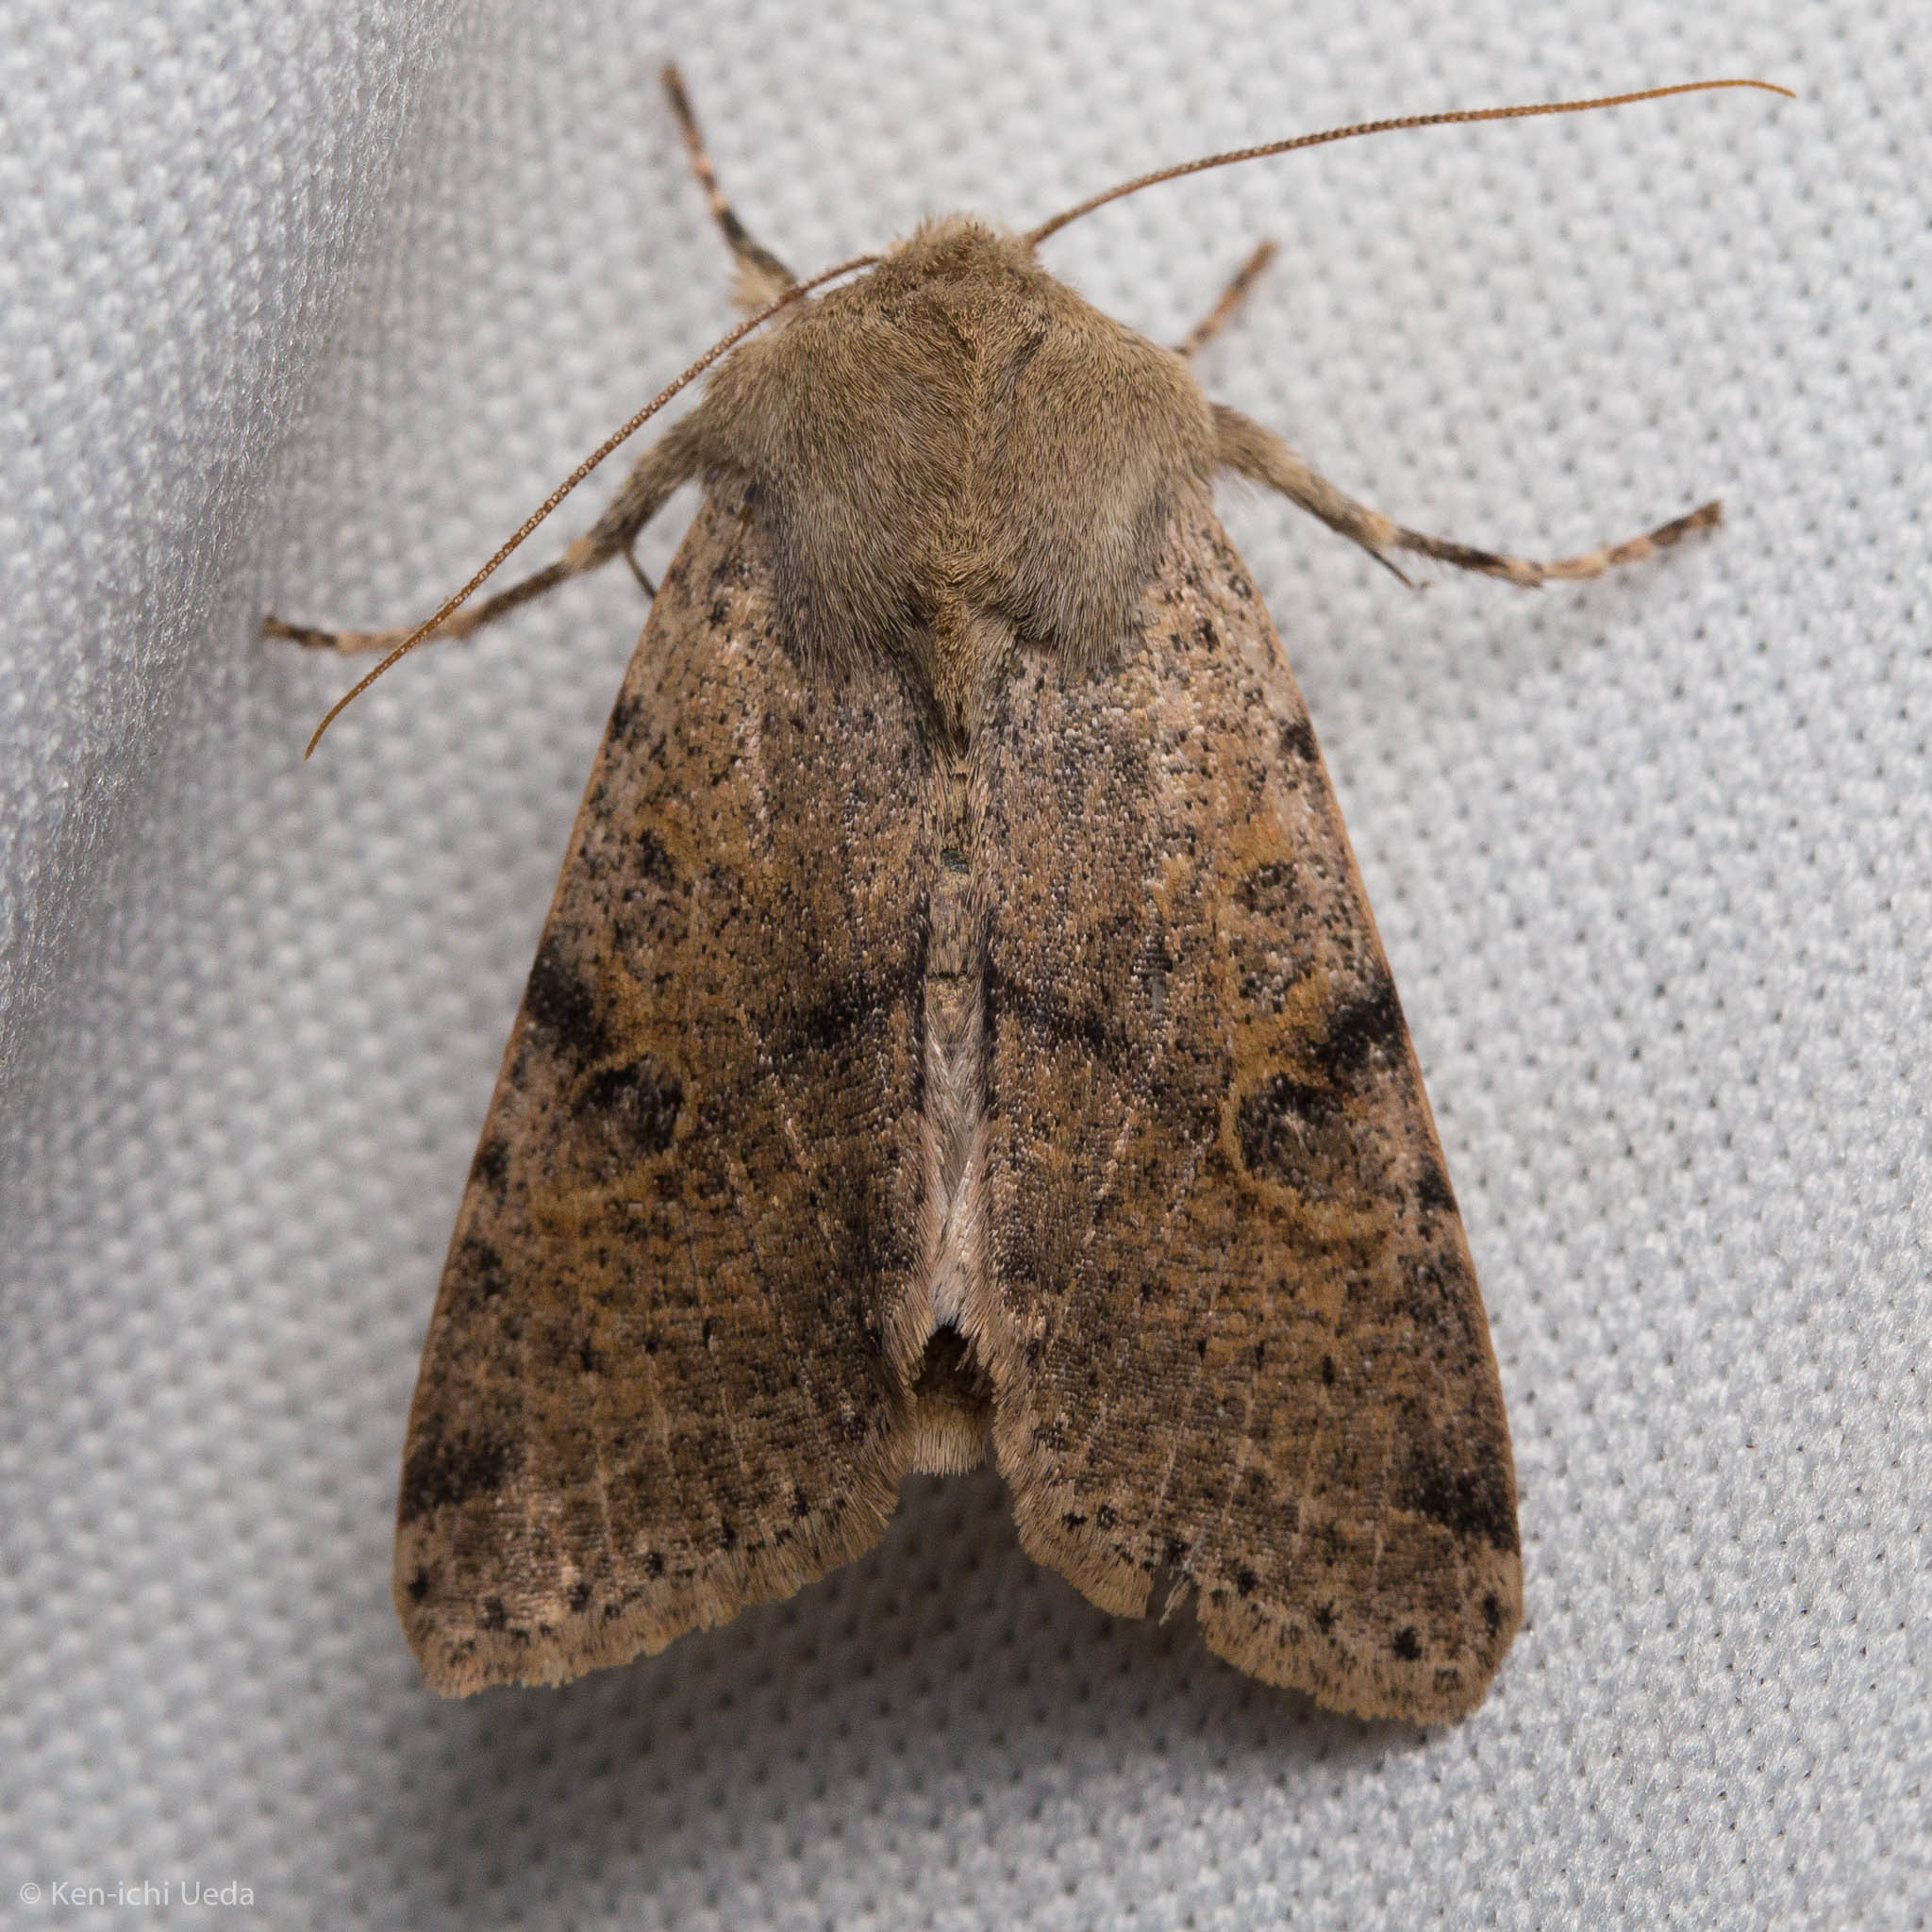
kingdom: Animalia
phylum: Arthropoda
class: Insecta
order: Lepidoptera
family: Noctuidae
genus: Orthosia
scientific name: Orthosia behrensiana
